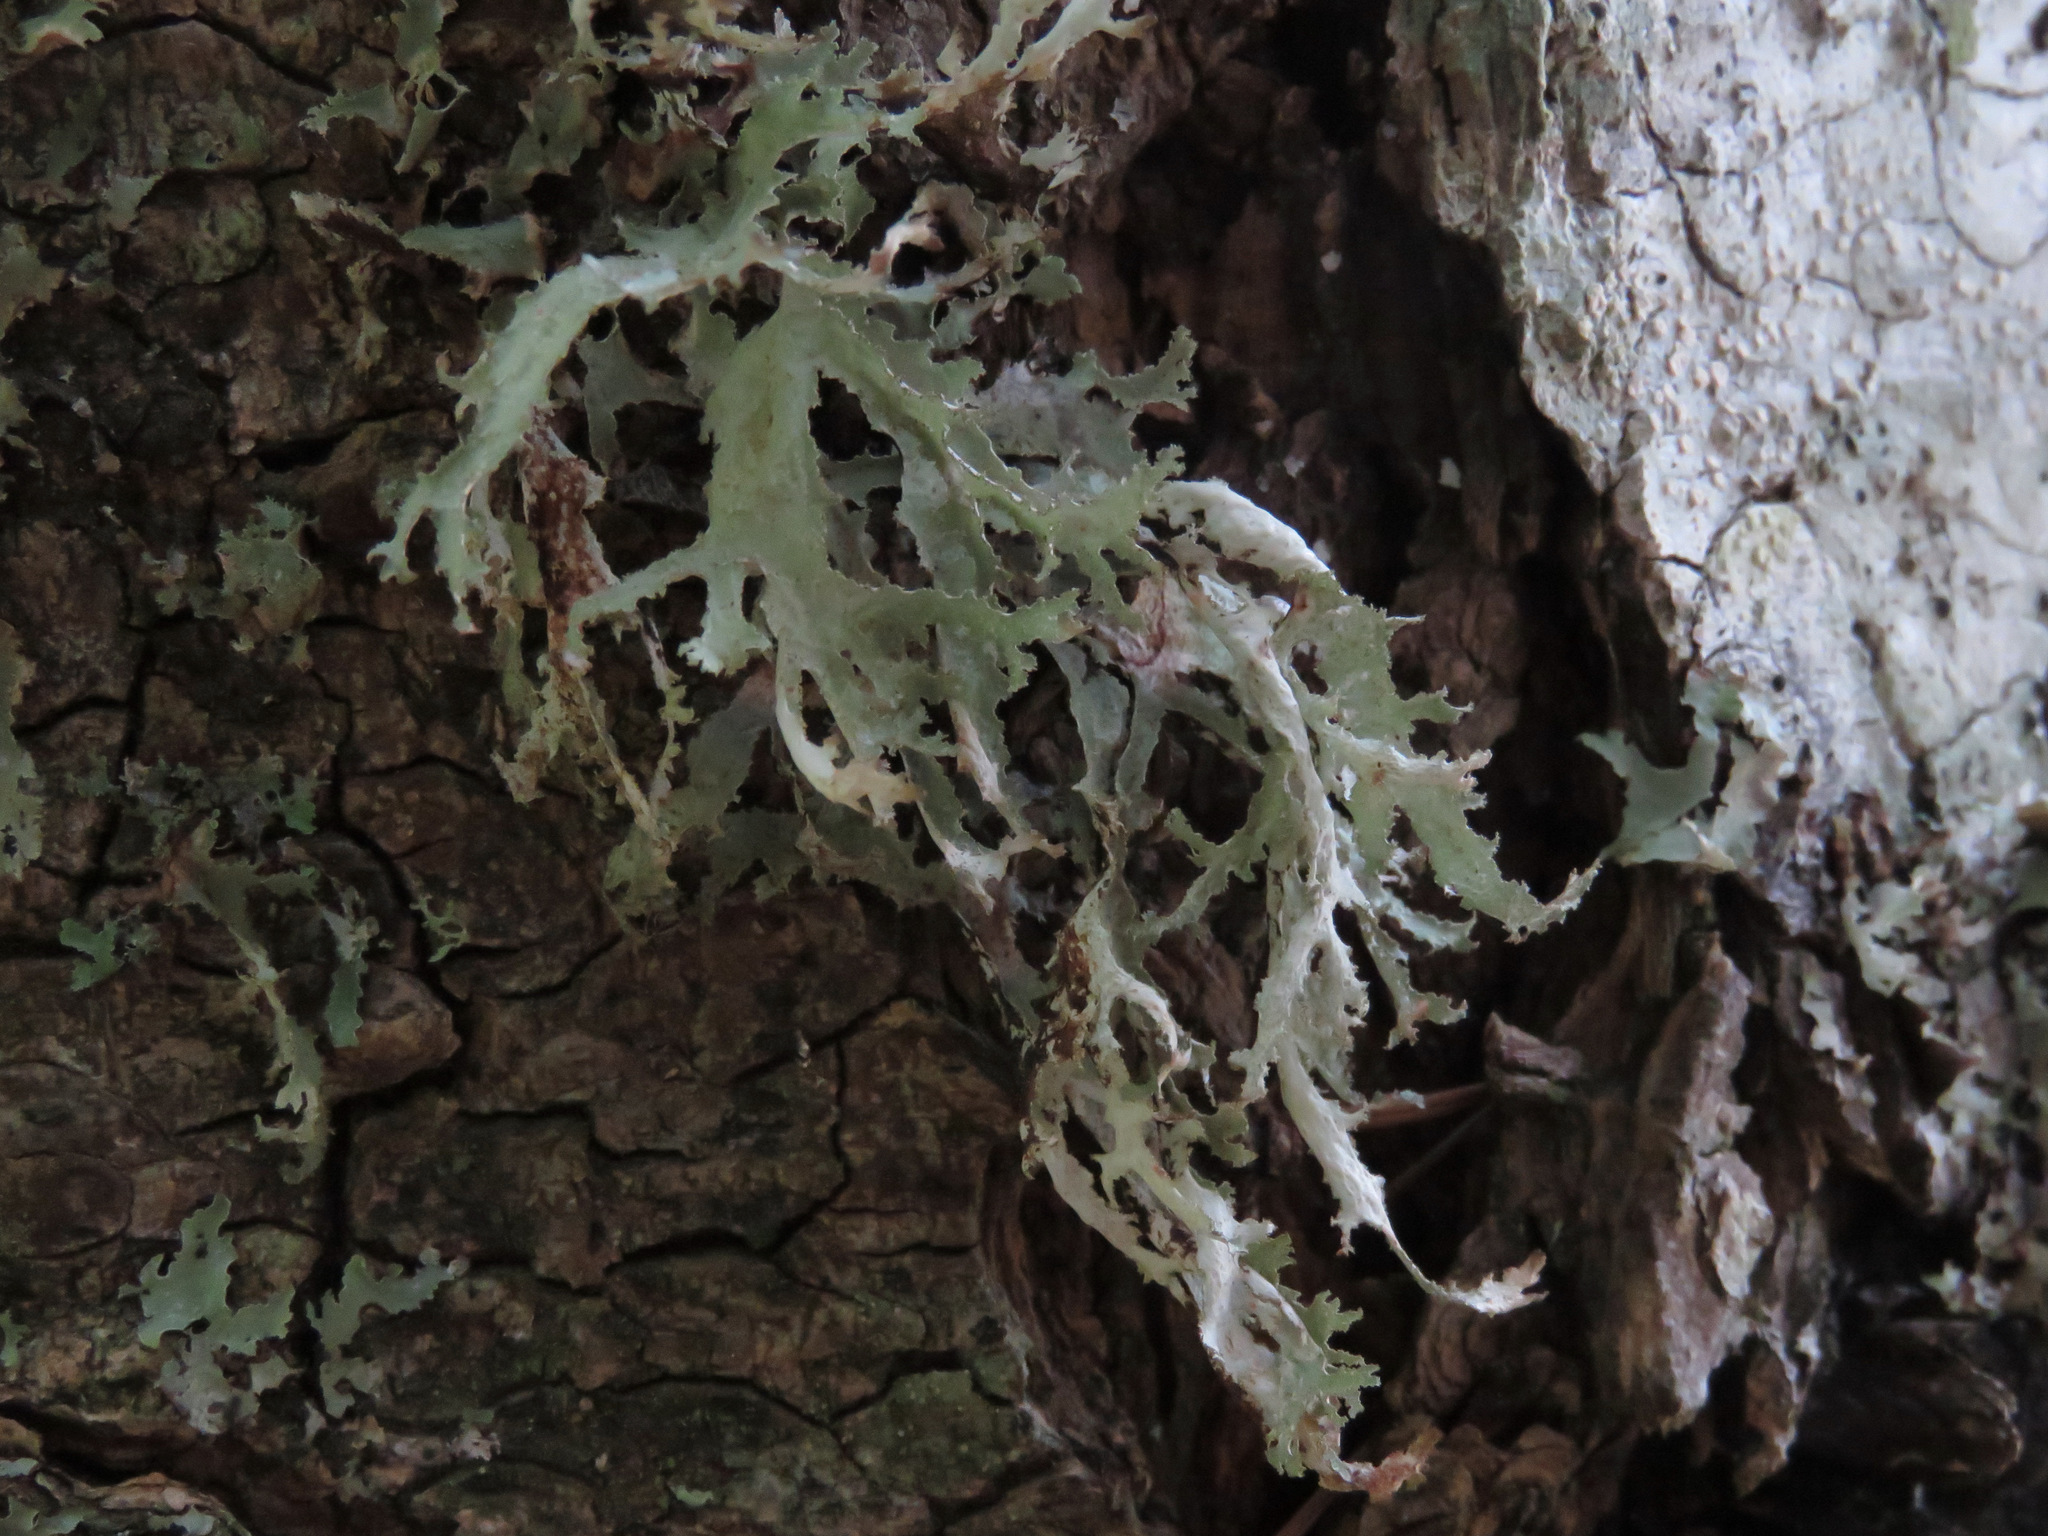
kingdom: Fungi
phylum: Ascomycota
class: Lecanoromycetes
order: Lecanorales
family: Parmeliaceae
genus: Evernia
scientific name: Evernia prunastri
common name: Oak moss
